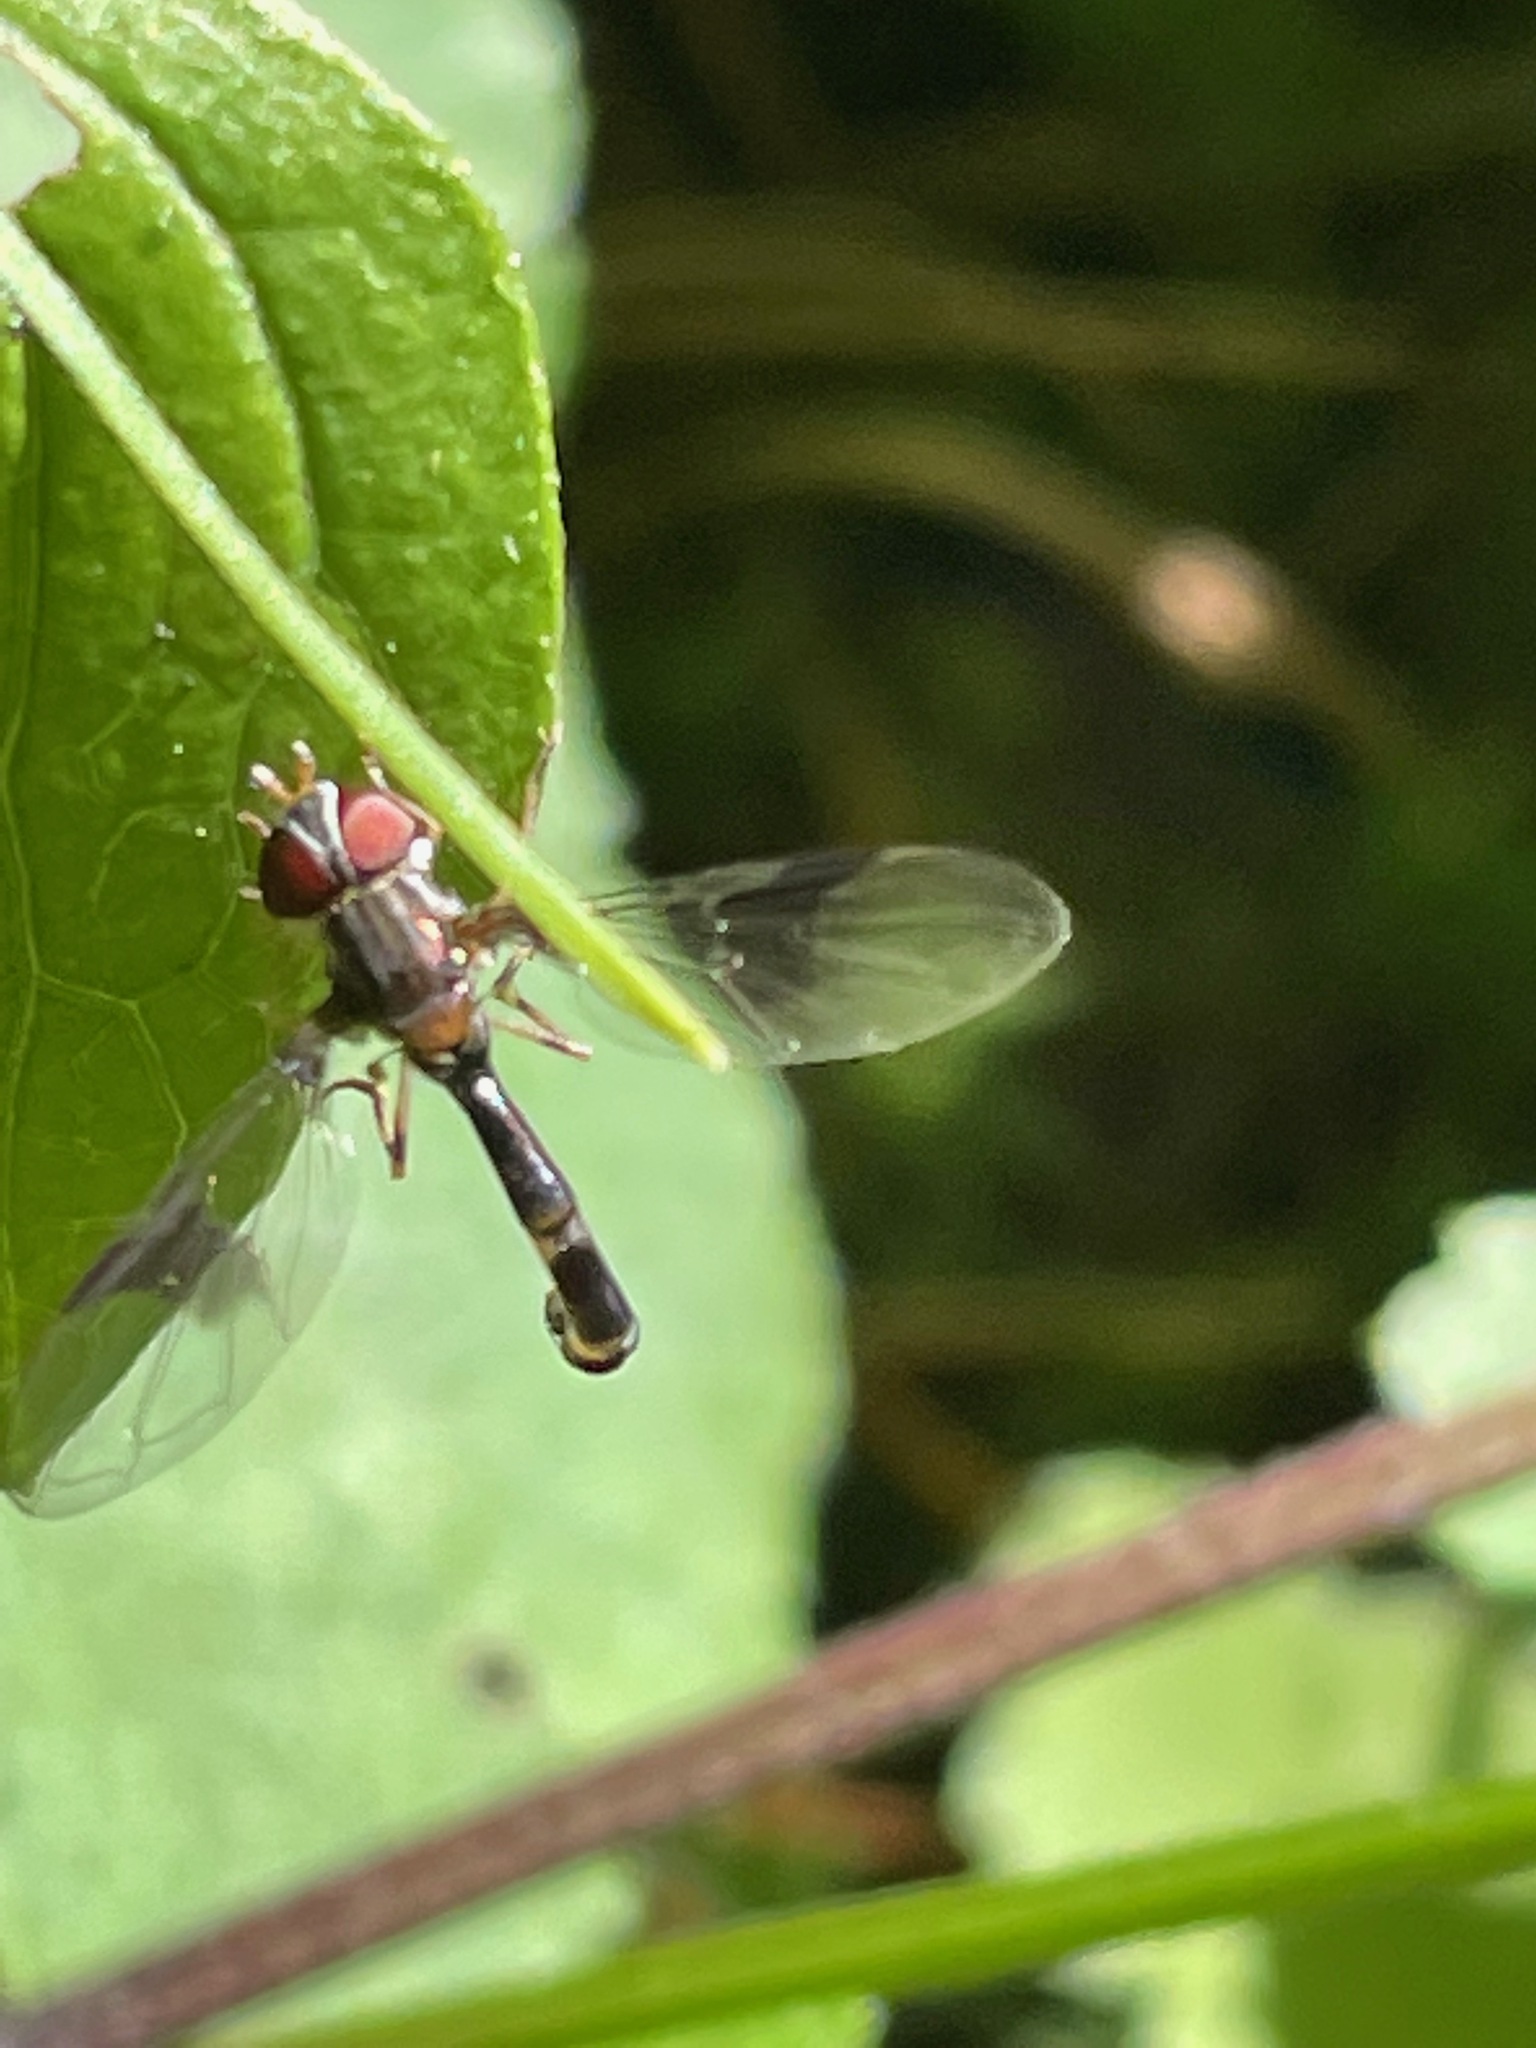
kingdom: Animalia
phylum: Arthropoda
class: Insecta
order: Diptera
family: Syrphidae
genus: Hypocritanus
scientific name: Hypocritanus fascipennis
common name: Eastern band-winged hover fly
